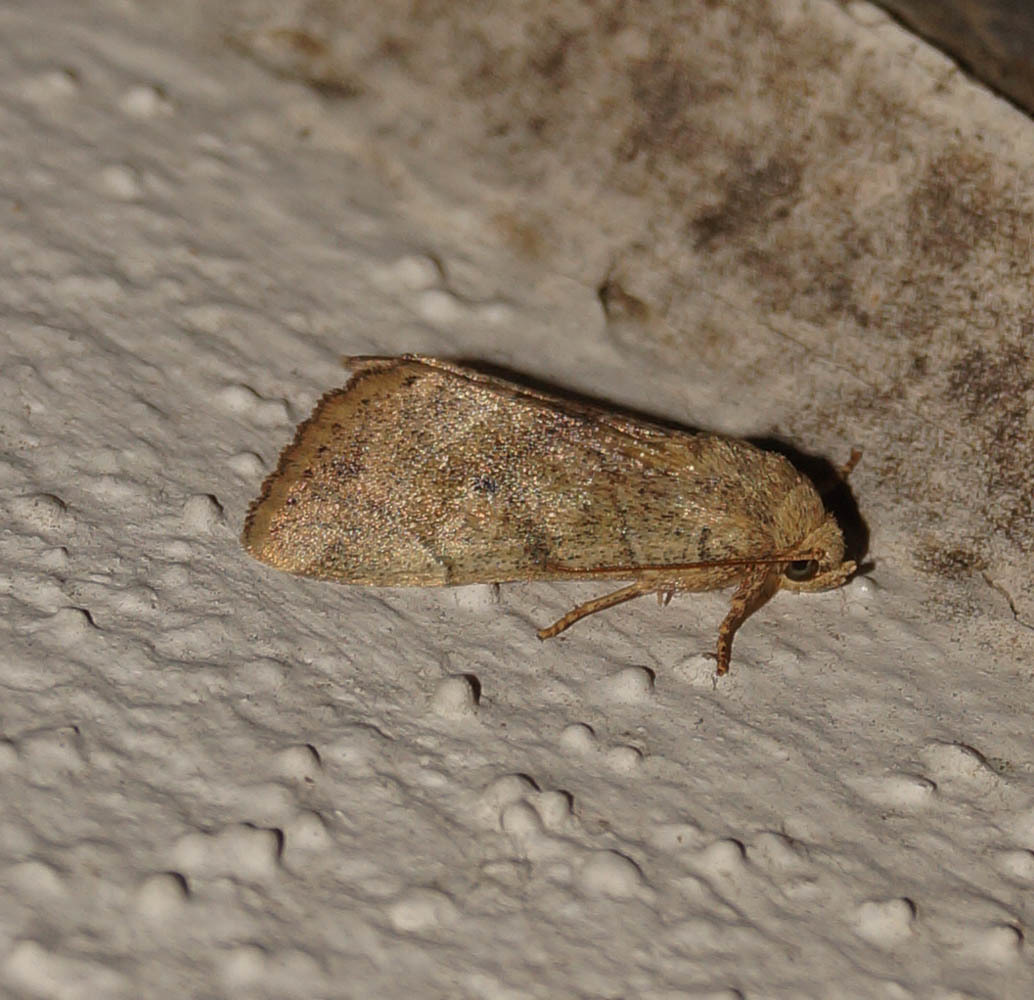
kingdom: Animalia
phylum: Arthropoda
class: Insecta
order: Lepidoptera
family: Noctuidae
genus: Cosmia
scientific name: Cosmia trapezina
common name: Dun-bar
